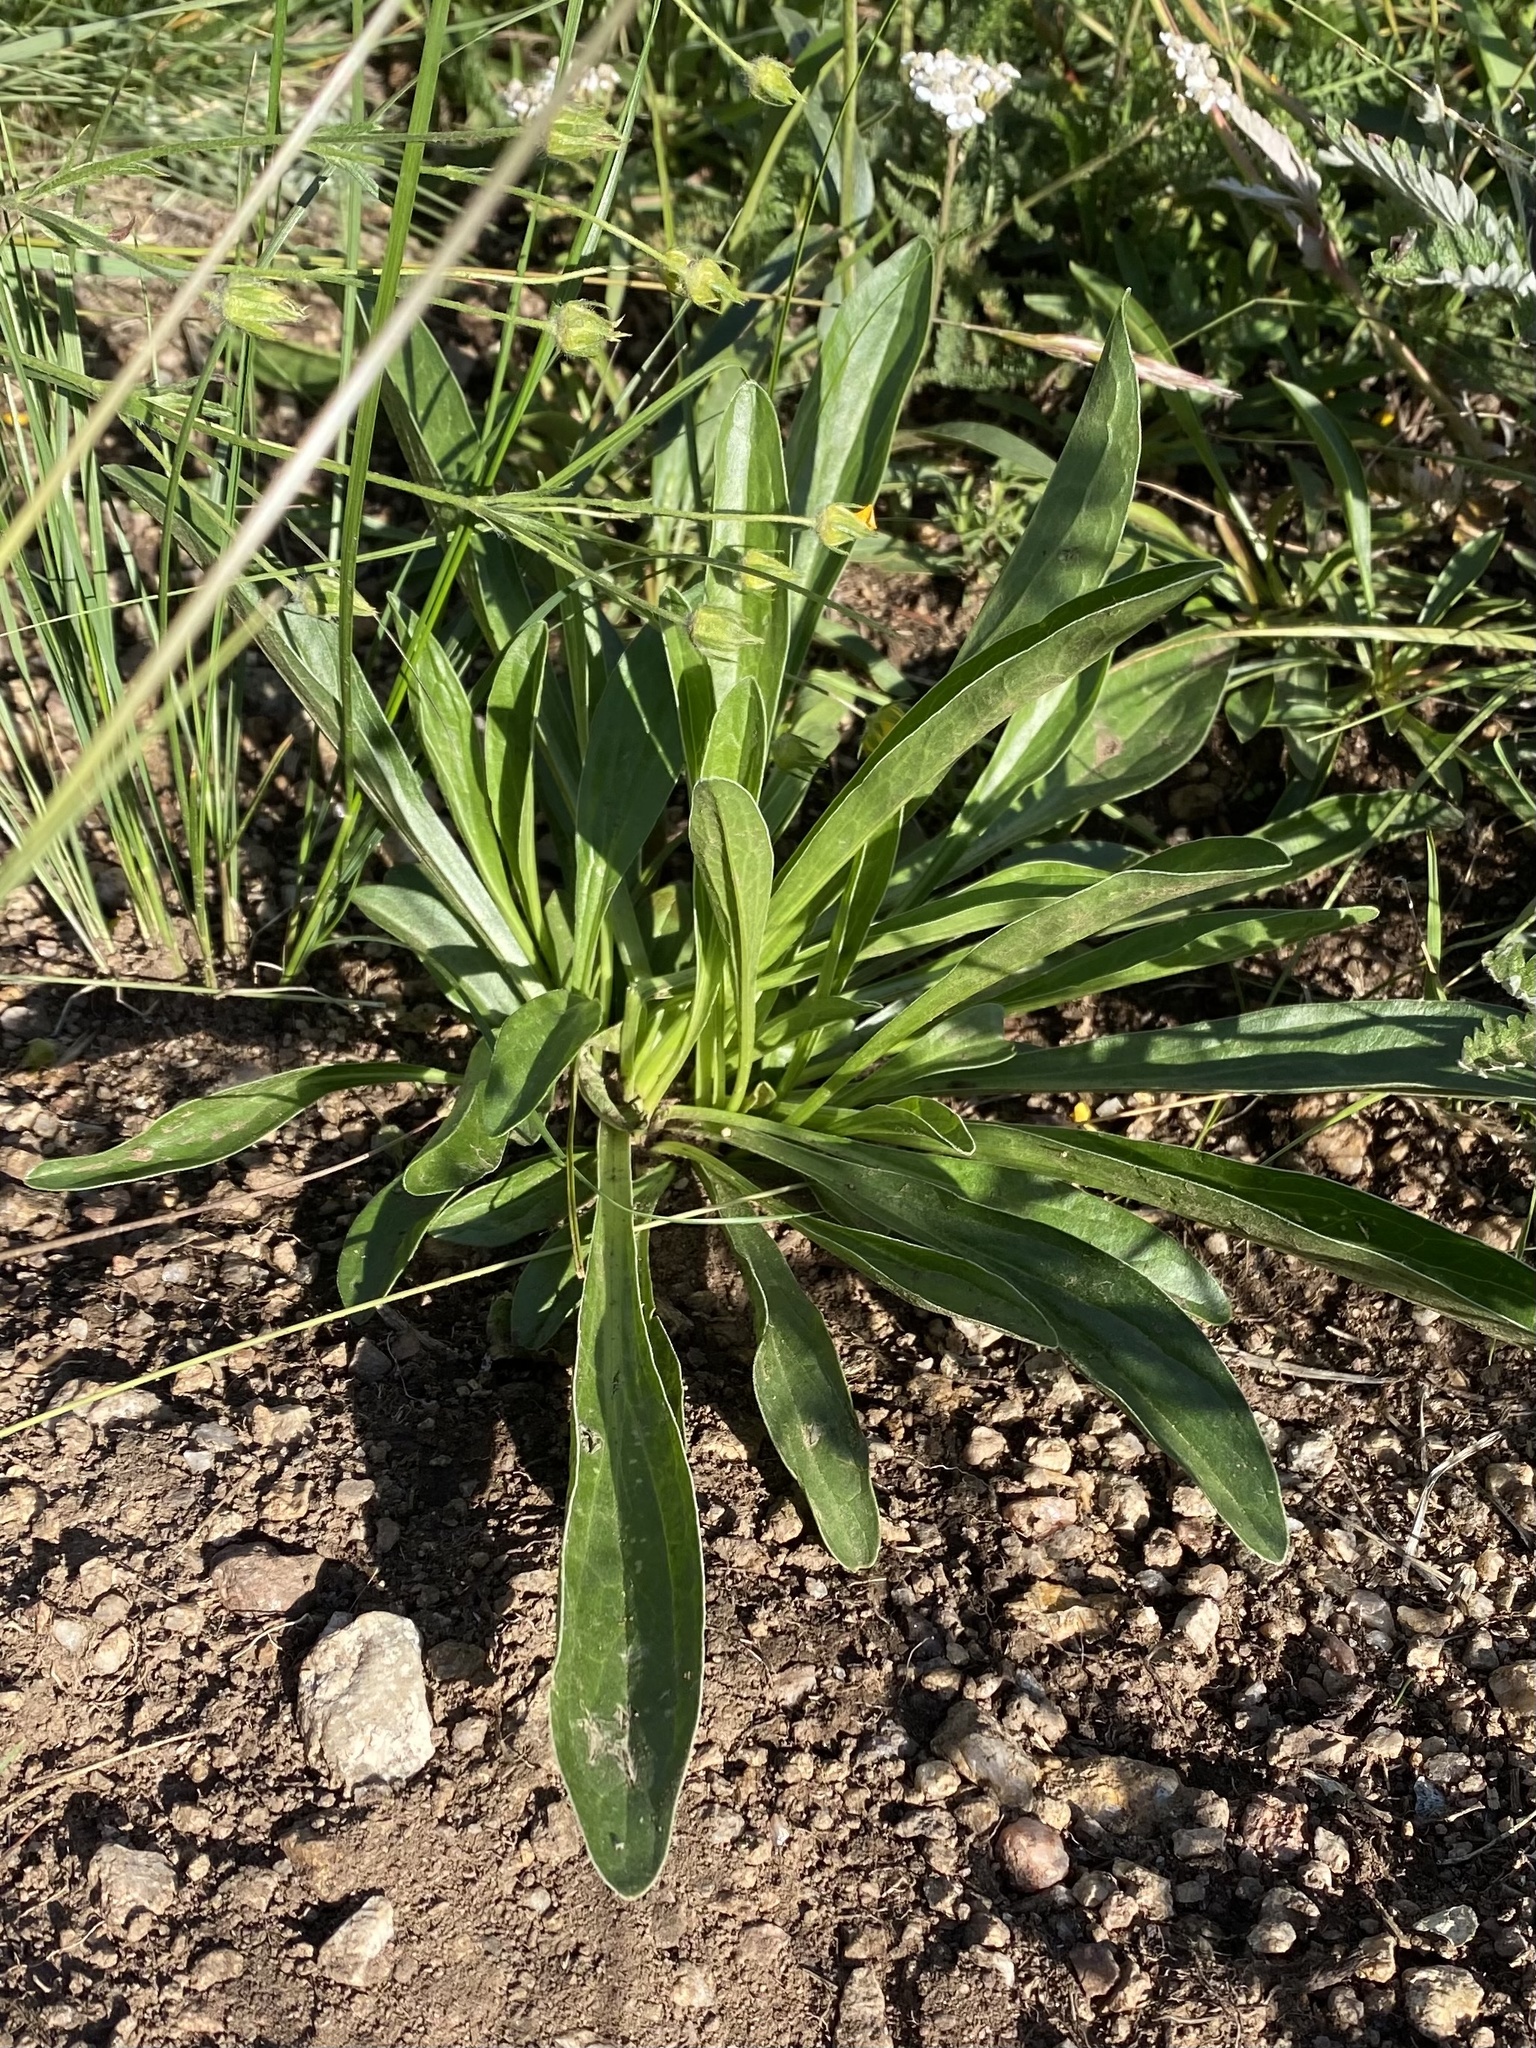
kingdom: Plantae
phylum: Tracheophyta
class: Magnoliopsida
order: Dipsacales
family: Caprifoliaceae
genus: Valeriana
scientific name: Valeriana edulis
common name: Taproot valerian
